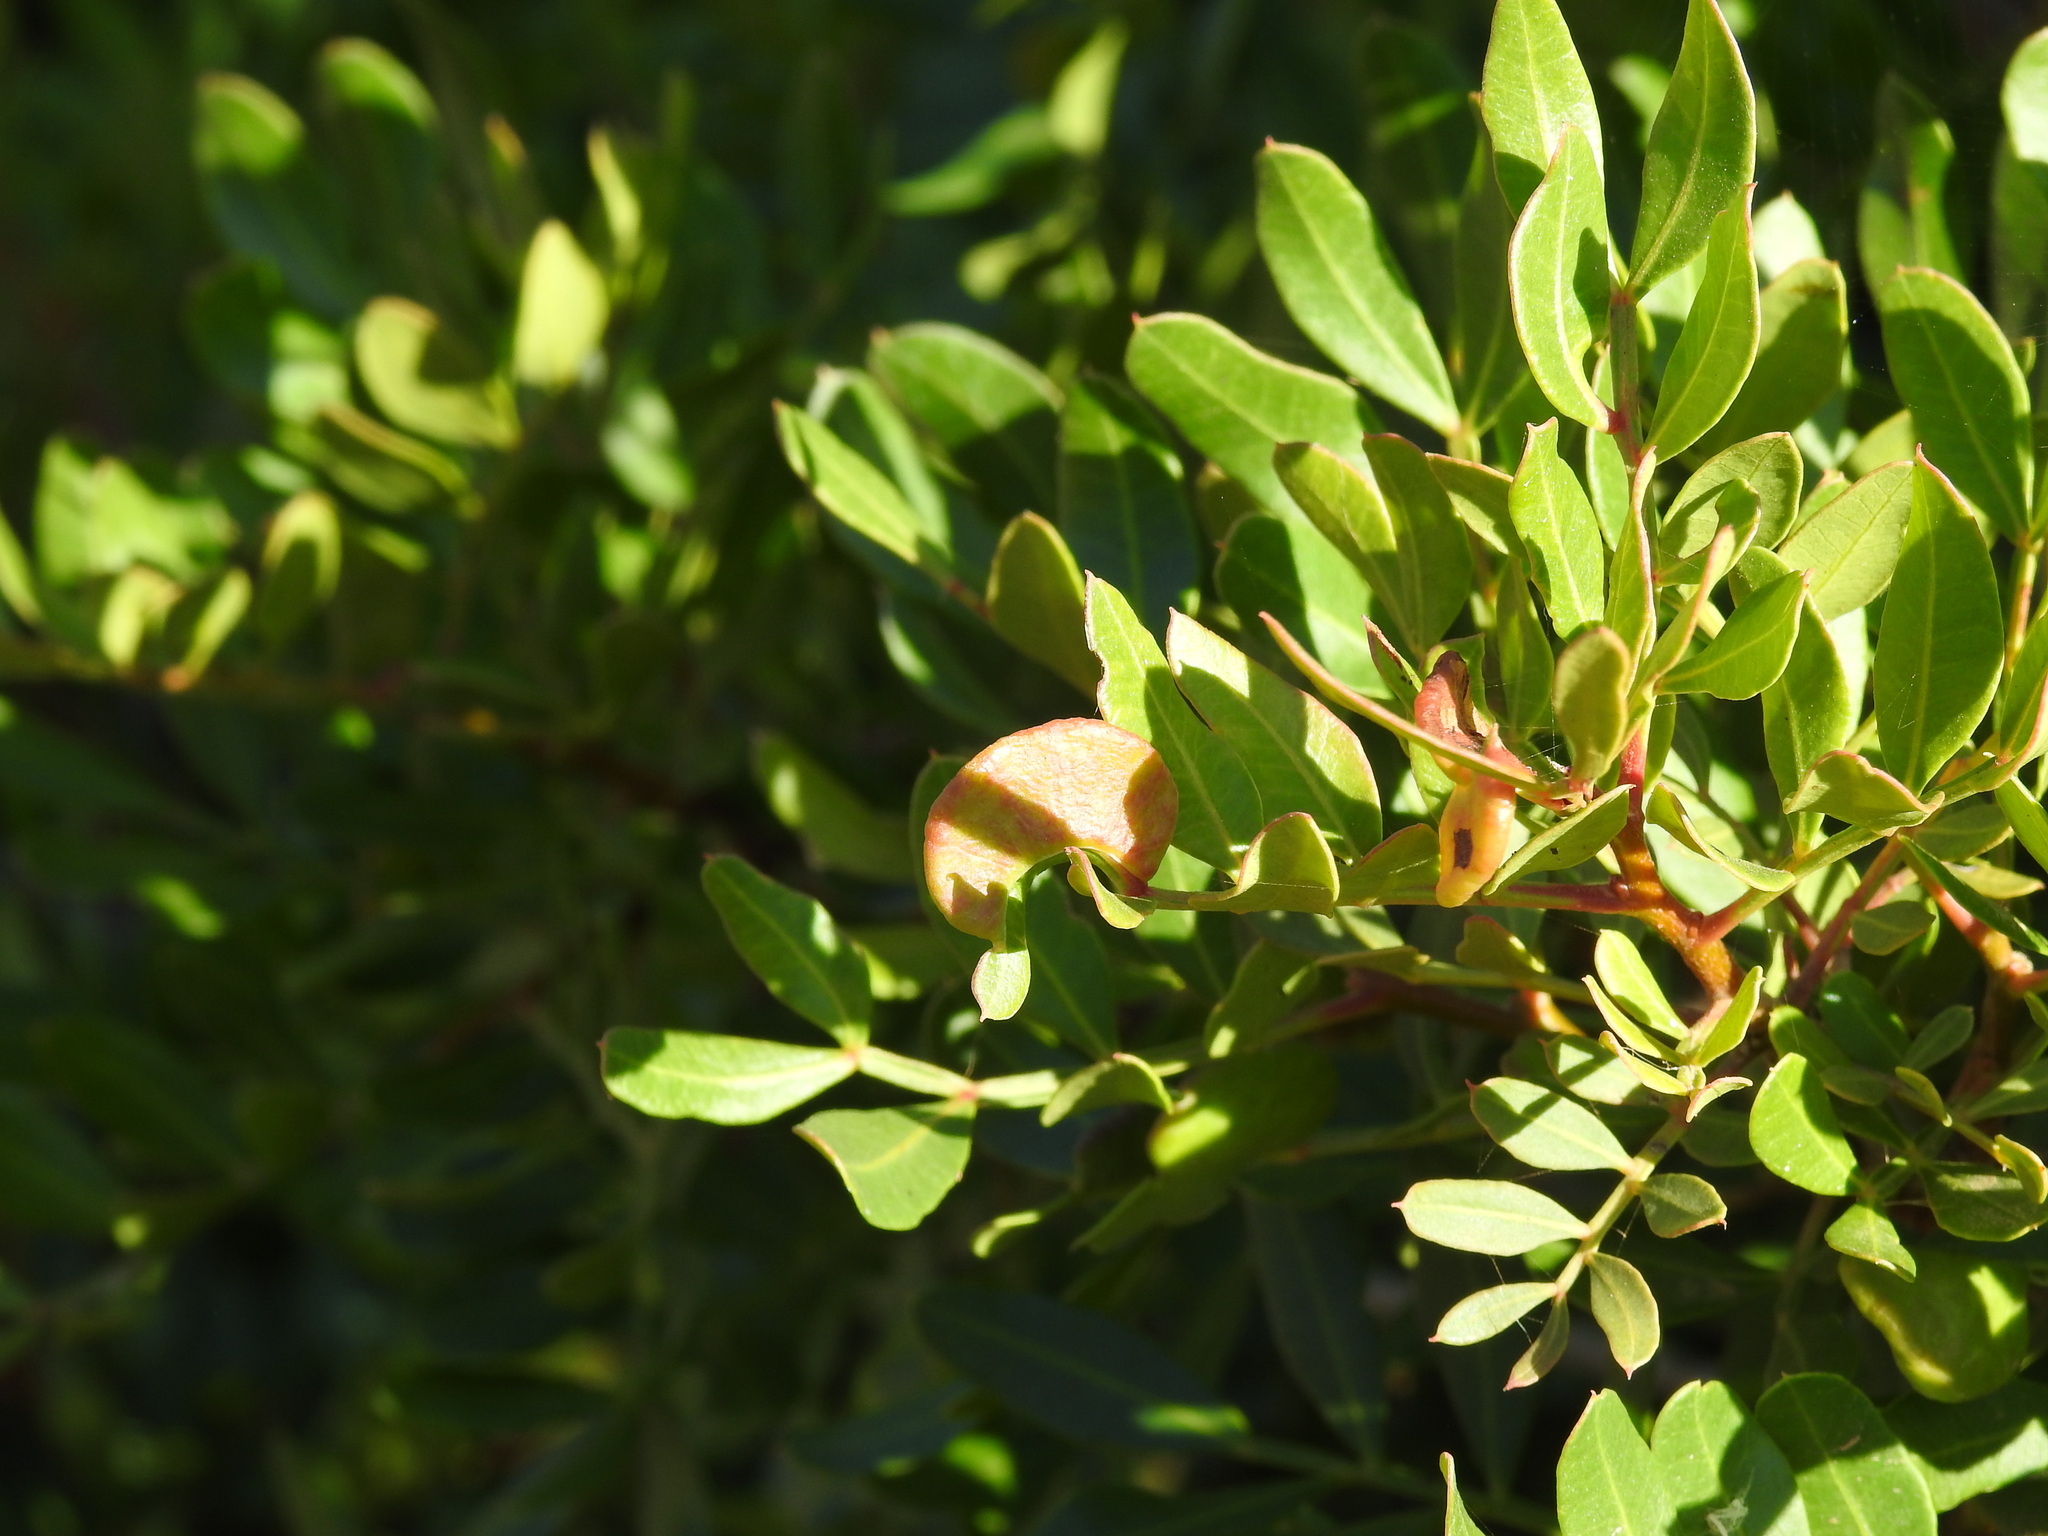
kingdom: Plantae
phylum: Tracheophyta
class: Magnoliopsida
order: Sapindales
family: Anacardiaceae
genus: Pistacia
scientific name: Pistacia lentiscus
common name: Lentisk
